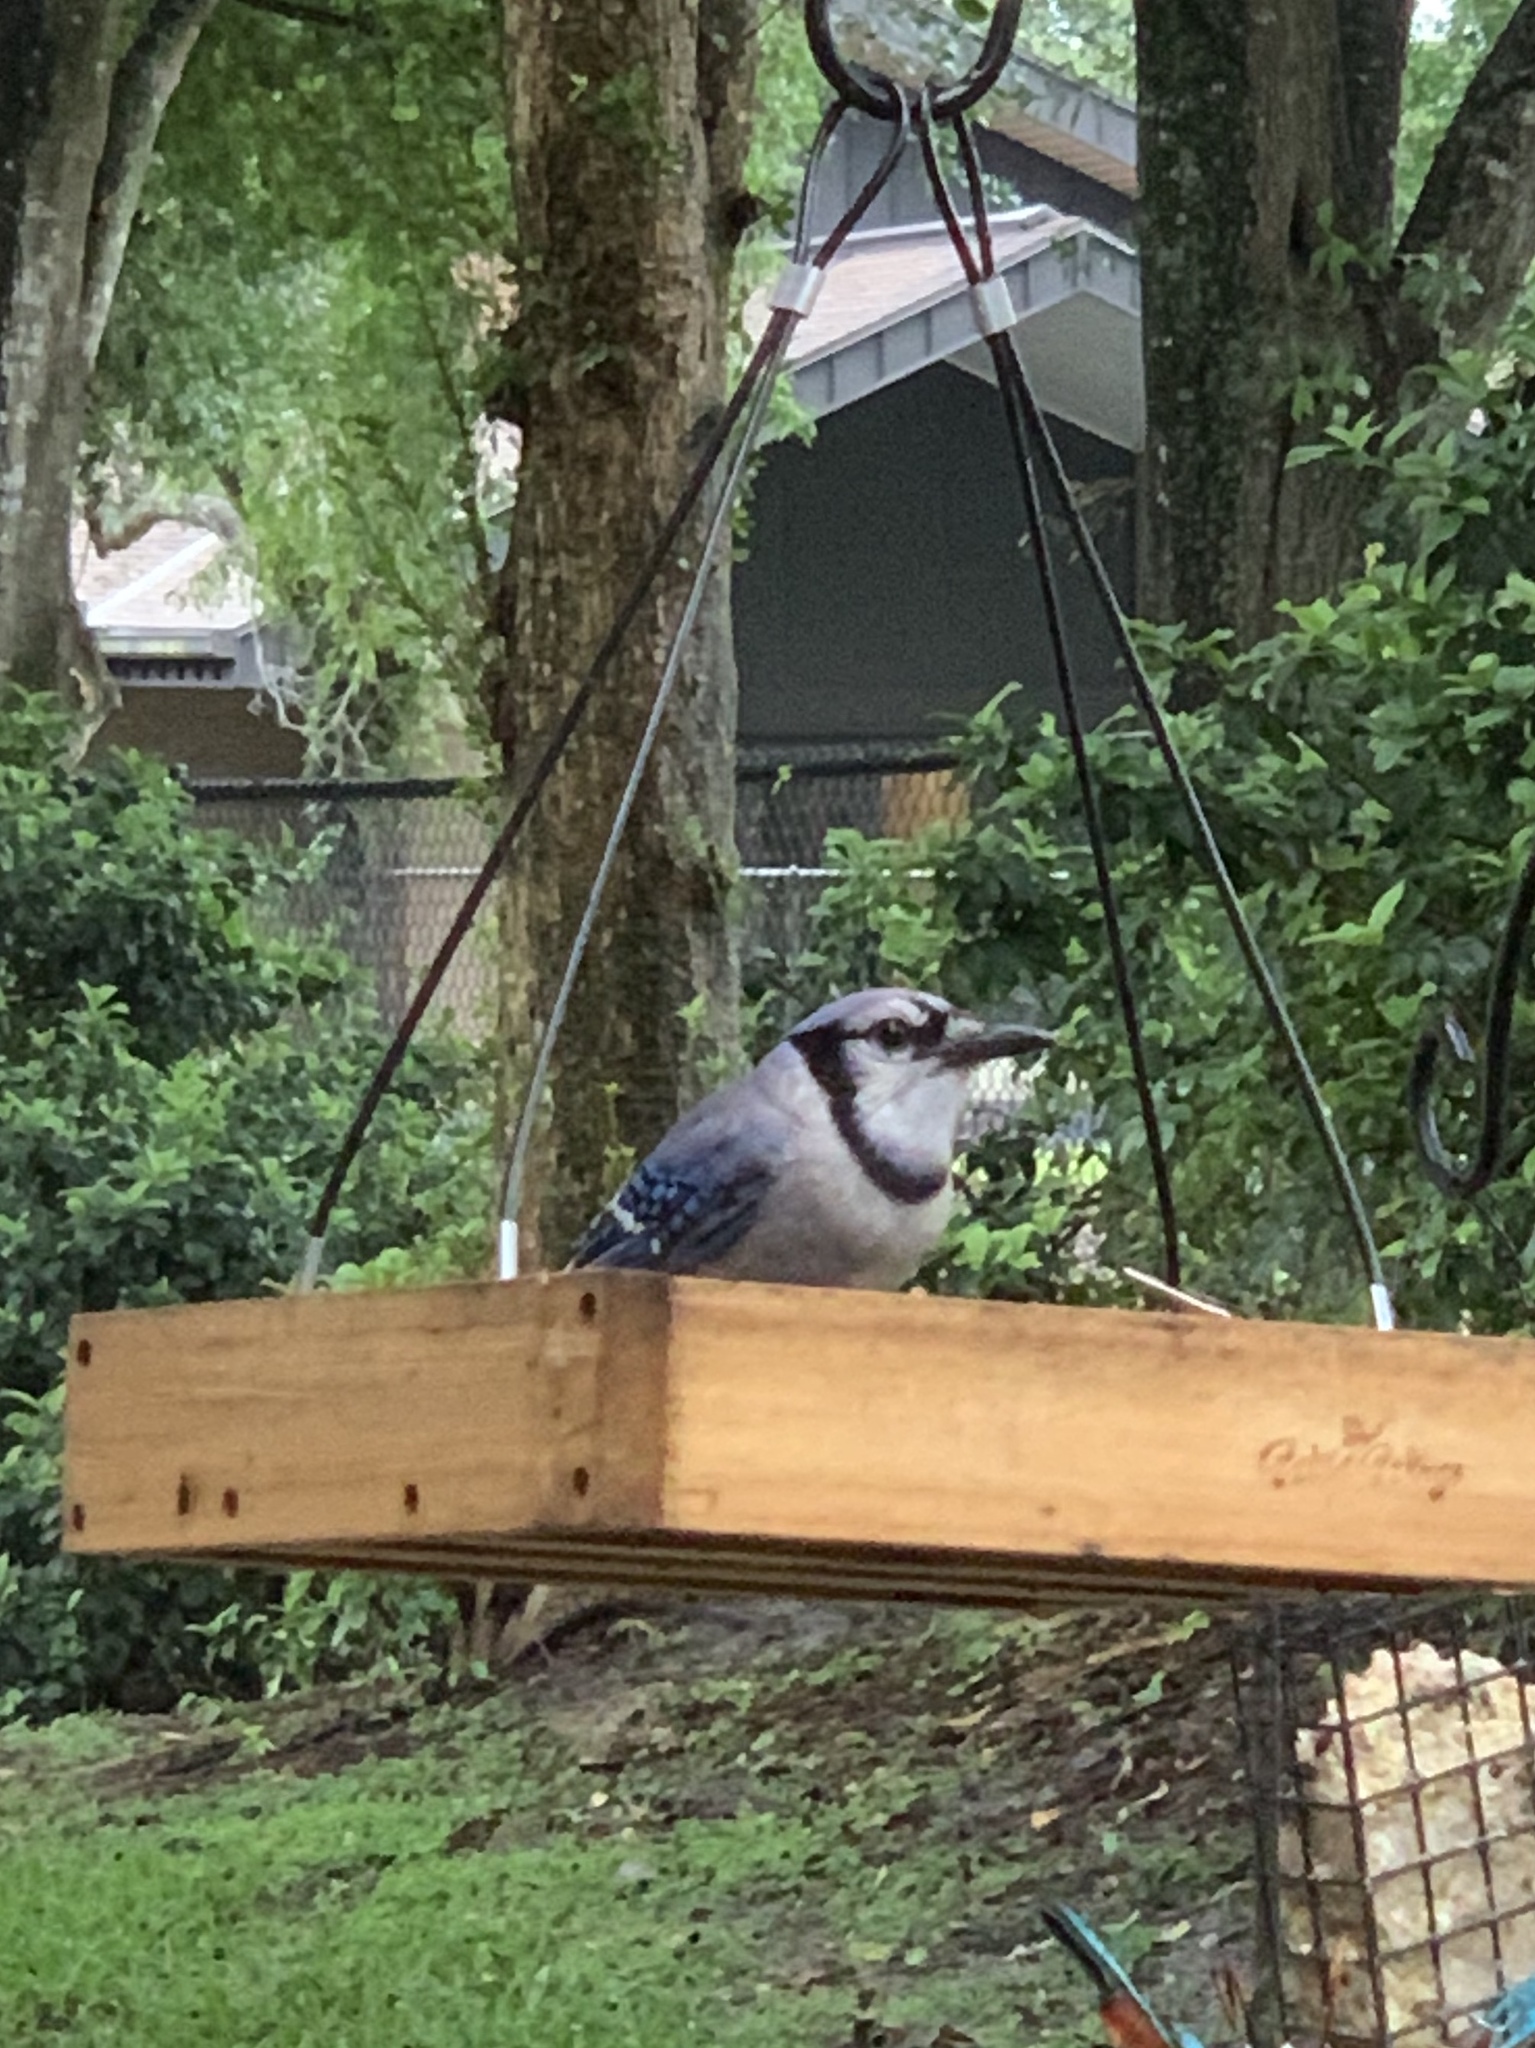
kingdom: Animalia
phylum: Chordata
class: Aves
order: Passeriformes
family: Corvidae
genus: Cyanocitta
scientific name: Cyanocitta cristata
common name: Blue jay
